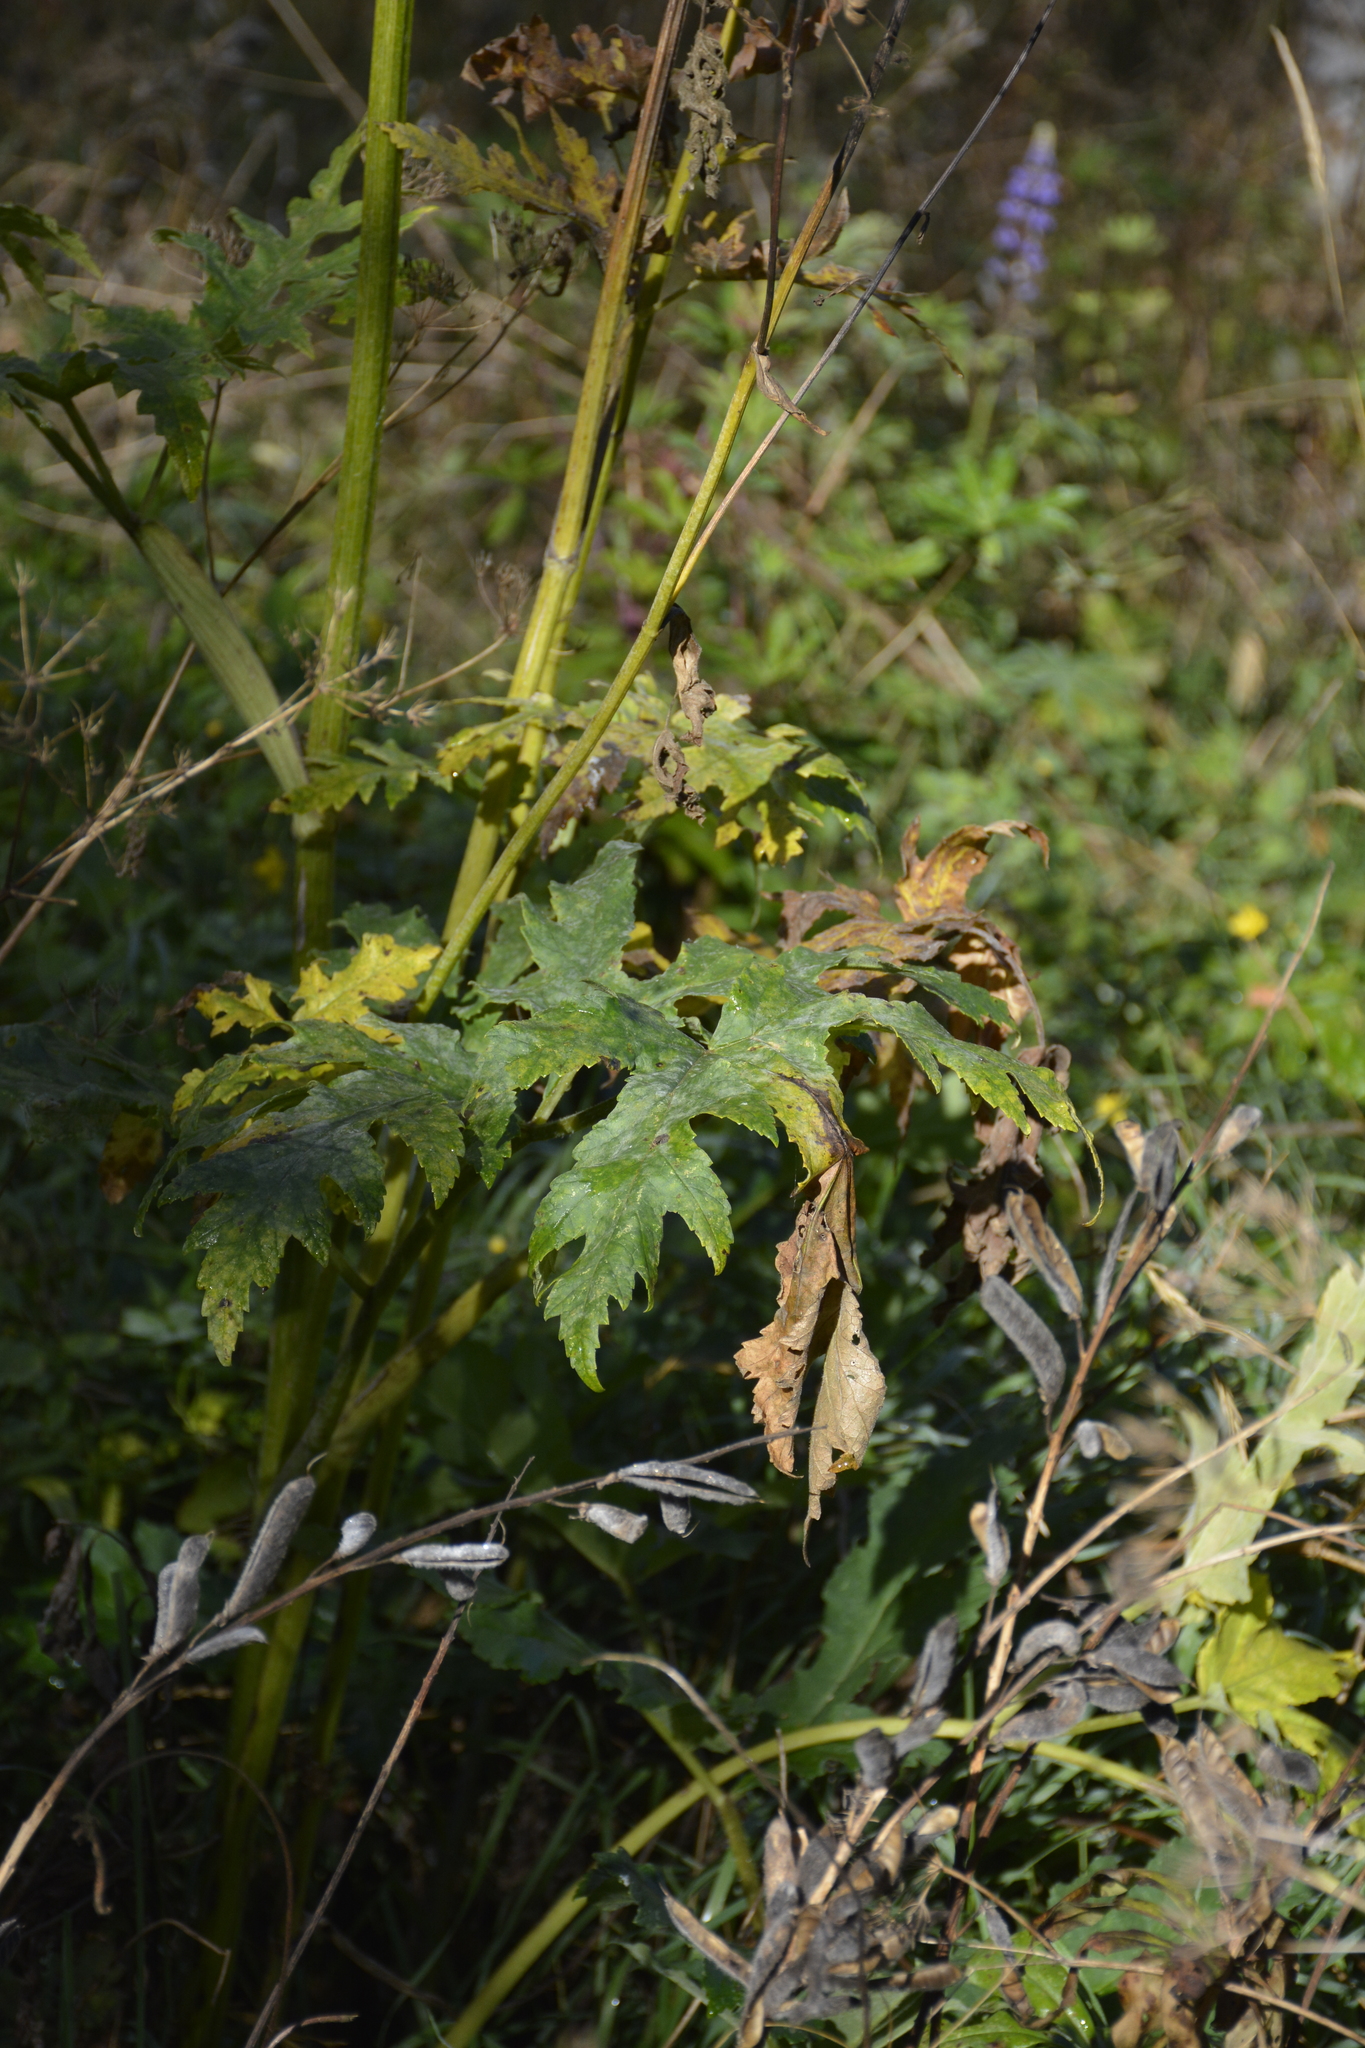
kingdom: Plantae
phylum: Tracheophyta
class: Magnoliopsida
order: Apiales
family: Apiaceae
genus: Heracleum
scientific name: Heracleum sphondylium
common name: Hogweed
